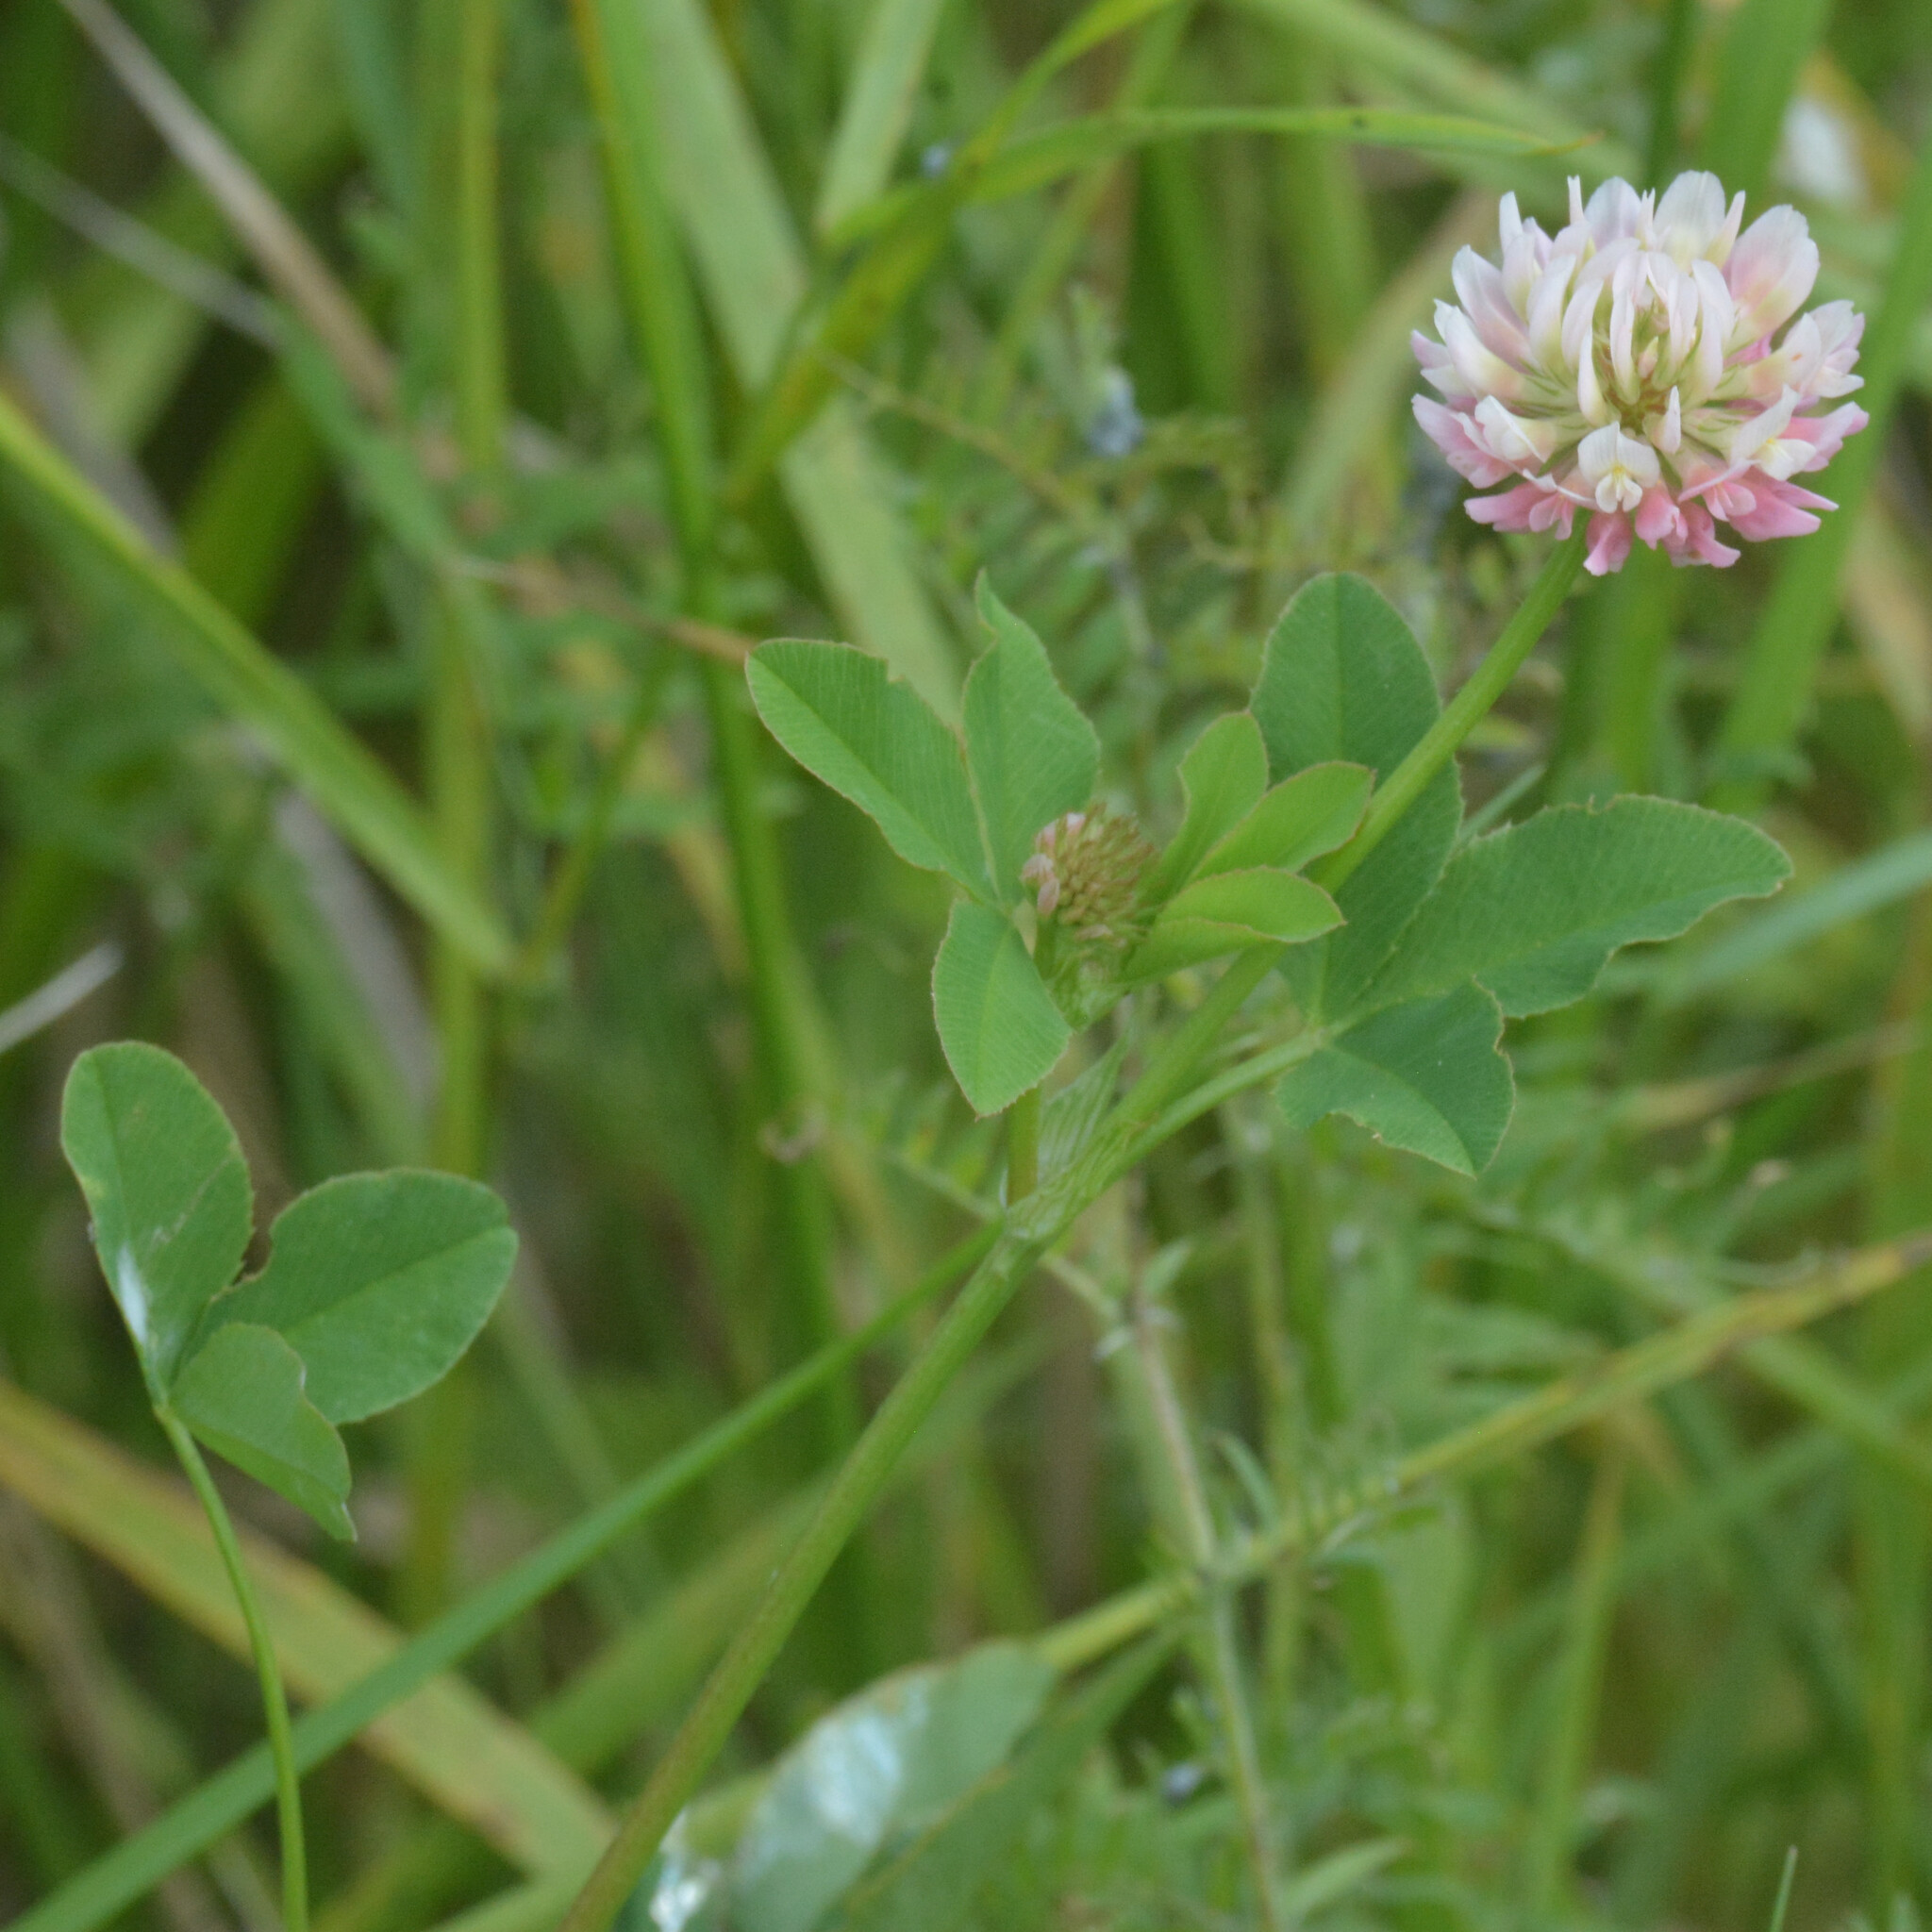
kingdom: Plantae
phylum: Tracheophyta
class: Magnoliopsida
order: Fabales
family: Fabaceae
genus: Trifolium
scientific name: Trifolium hybridum
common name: Alsike clover
